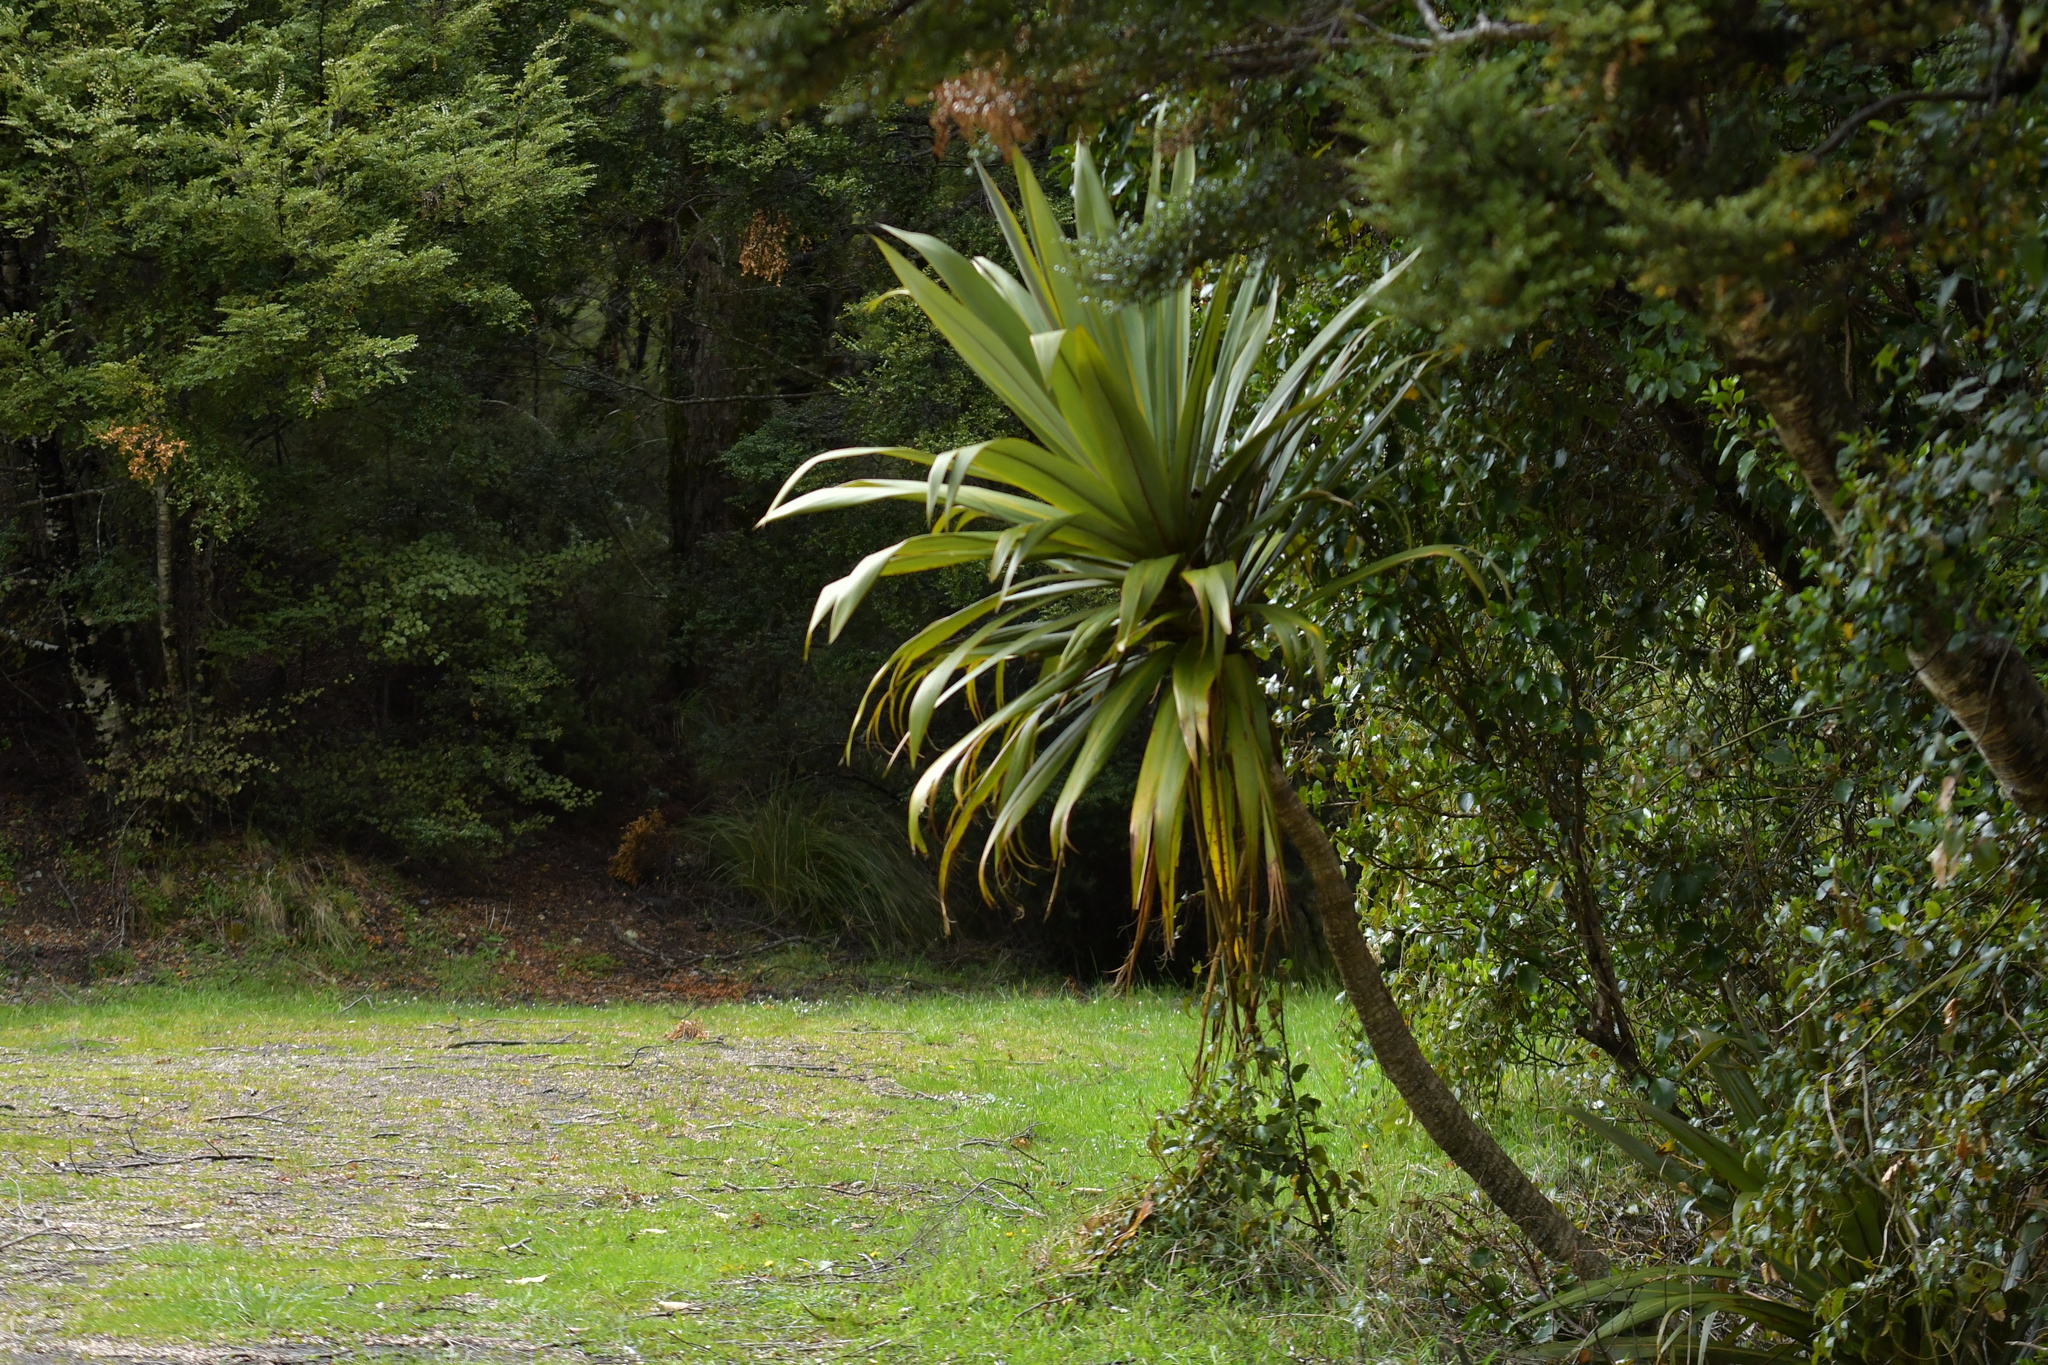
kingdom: Plantae
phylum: Tracheophyta
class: Liliopsida
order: Asparagales
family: Asparagaceae
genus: Cordyline
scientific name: Cordyline indivisa
